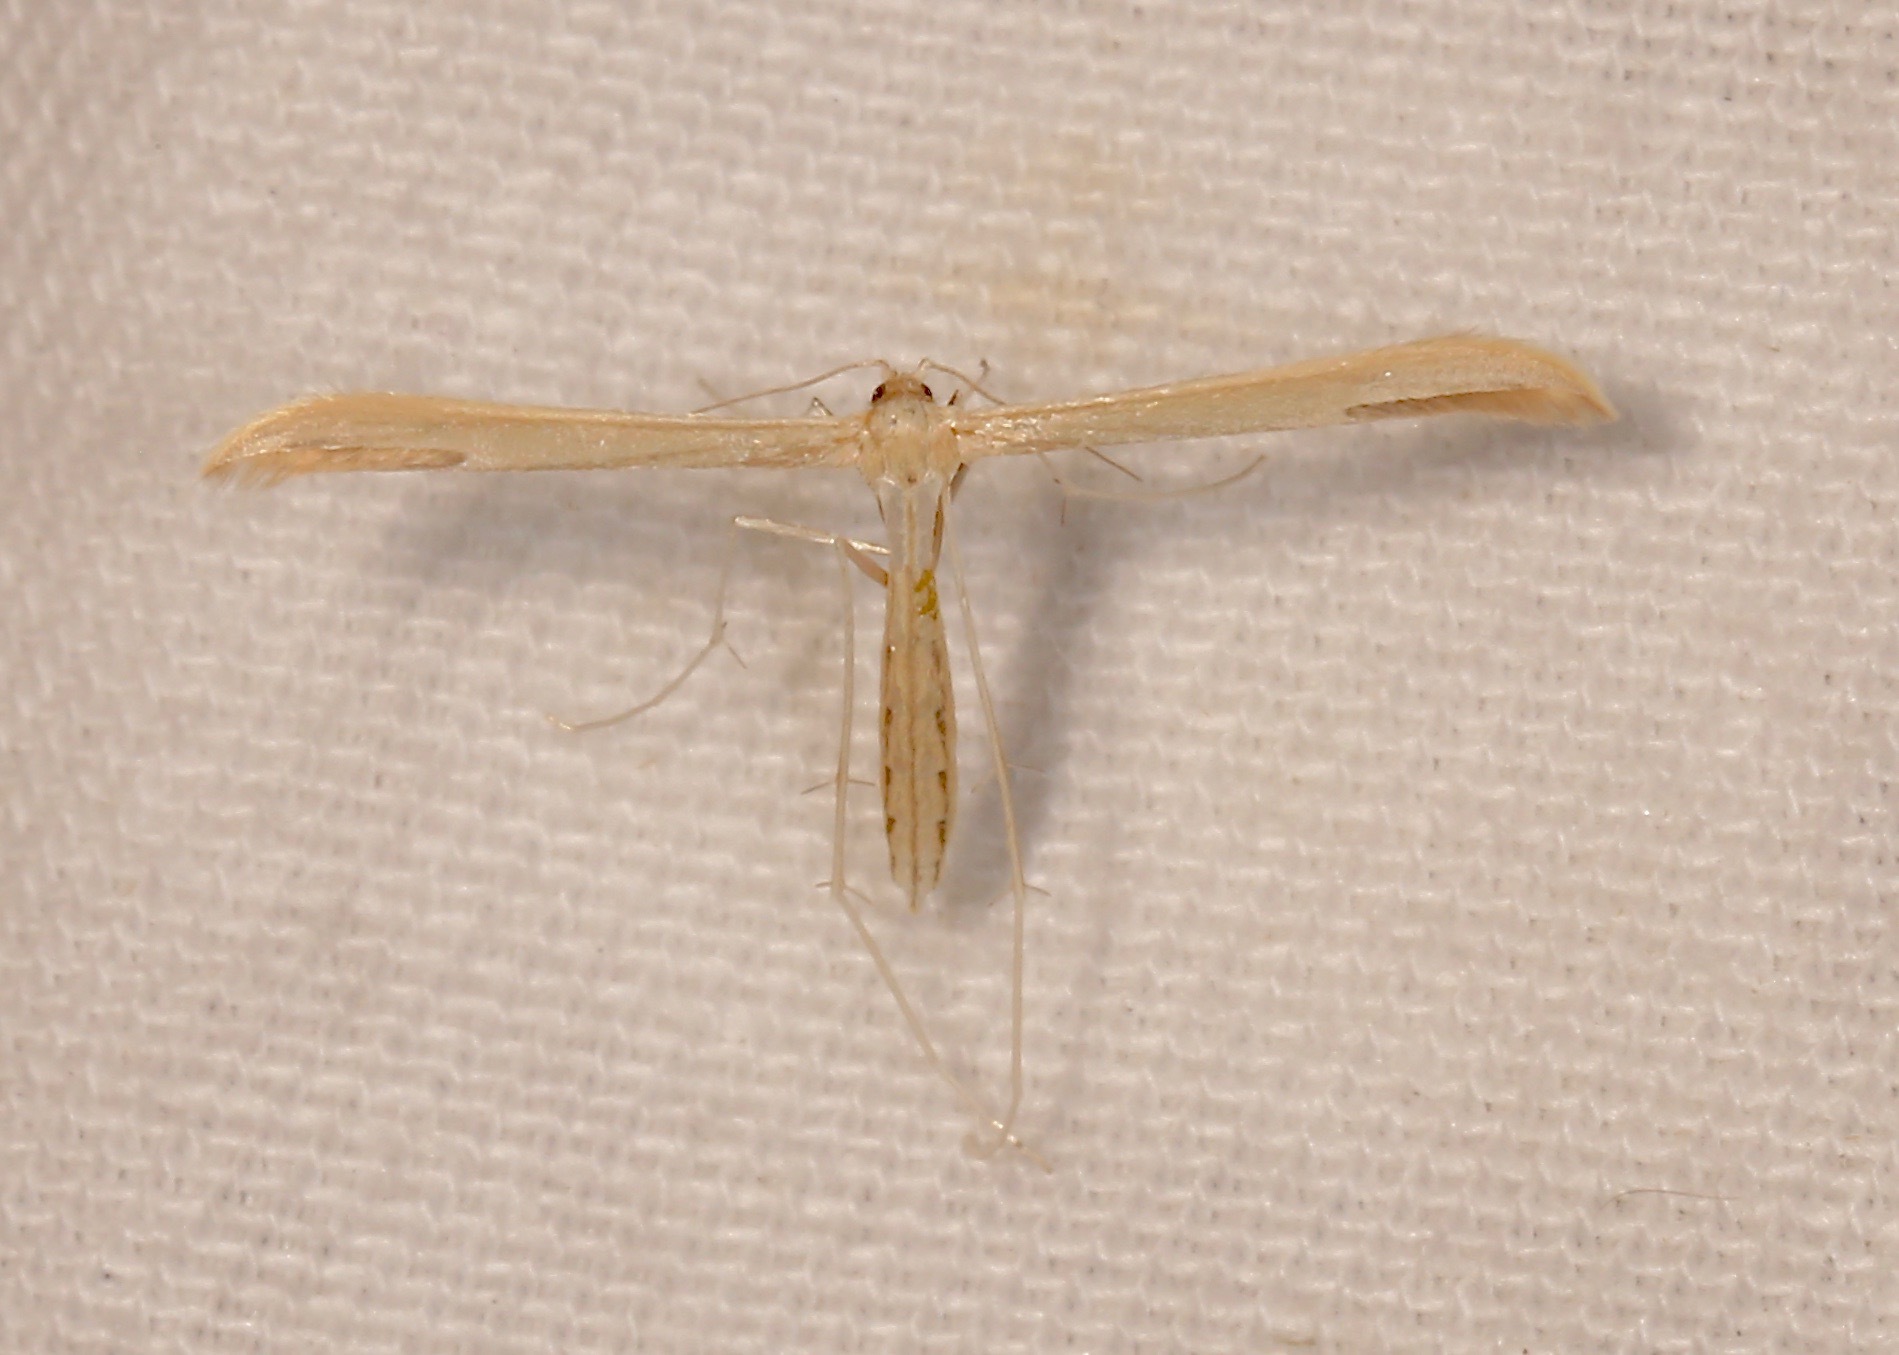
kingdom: Animalia
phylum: Arthropoda
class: Insecta
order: Lepidoptera
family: Pterophoridae
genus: Hellinsia
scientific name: Hellinsia unicolor
